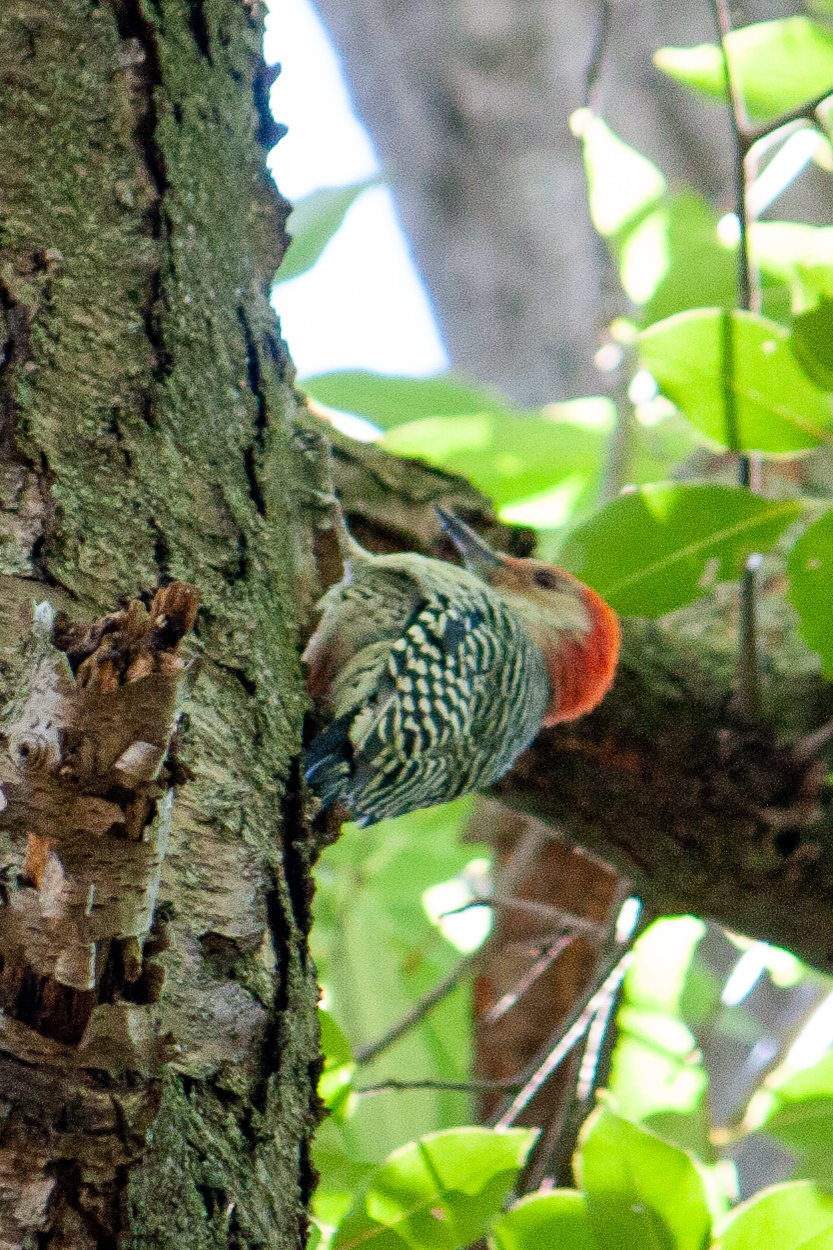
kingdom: Animalia
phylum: Chordata
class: Aves
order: Piciformes
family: Picidae
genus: Melanerpes
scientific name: Melanerpes carolinus
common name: Red-bellied woodpecker
